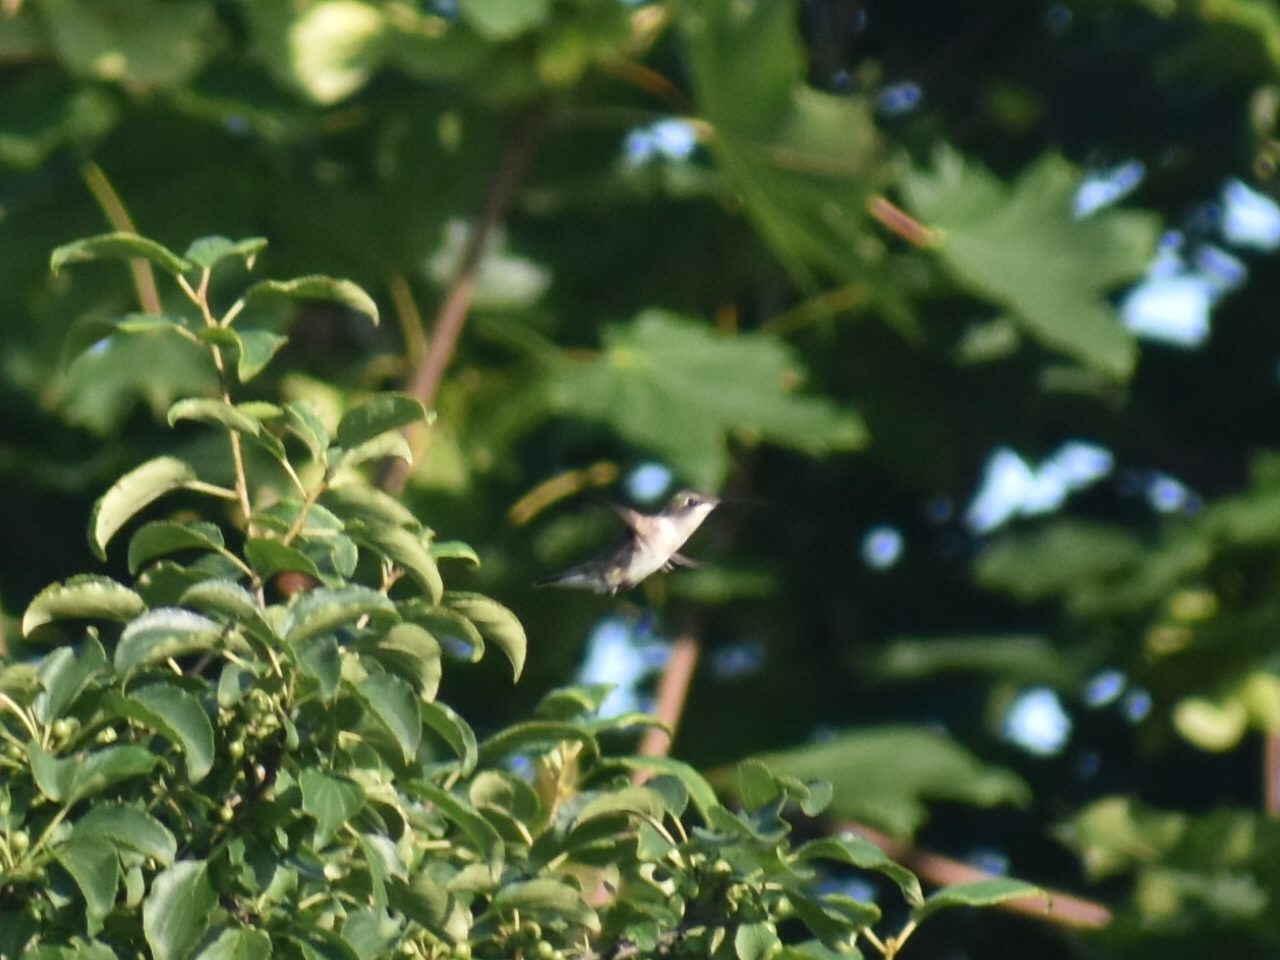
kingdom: Animalia
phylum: Chordata
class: Aves
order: Apodiformes
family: Trochilidae
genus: Archilochus
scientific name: Archilochus colubris
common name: Ruby-throated hummingbird
